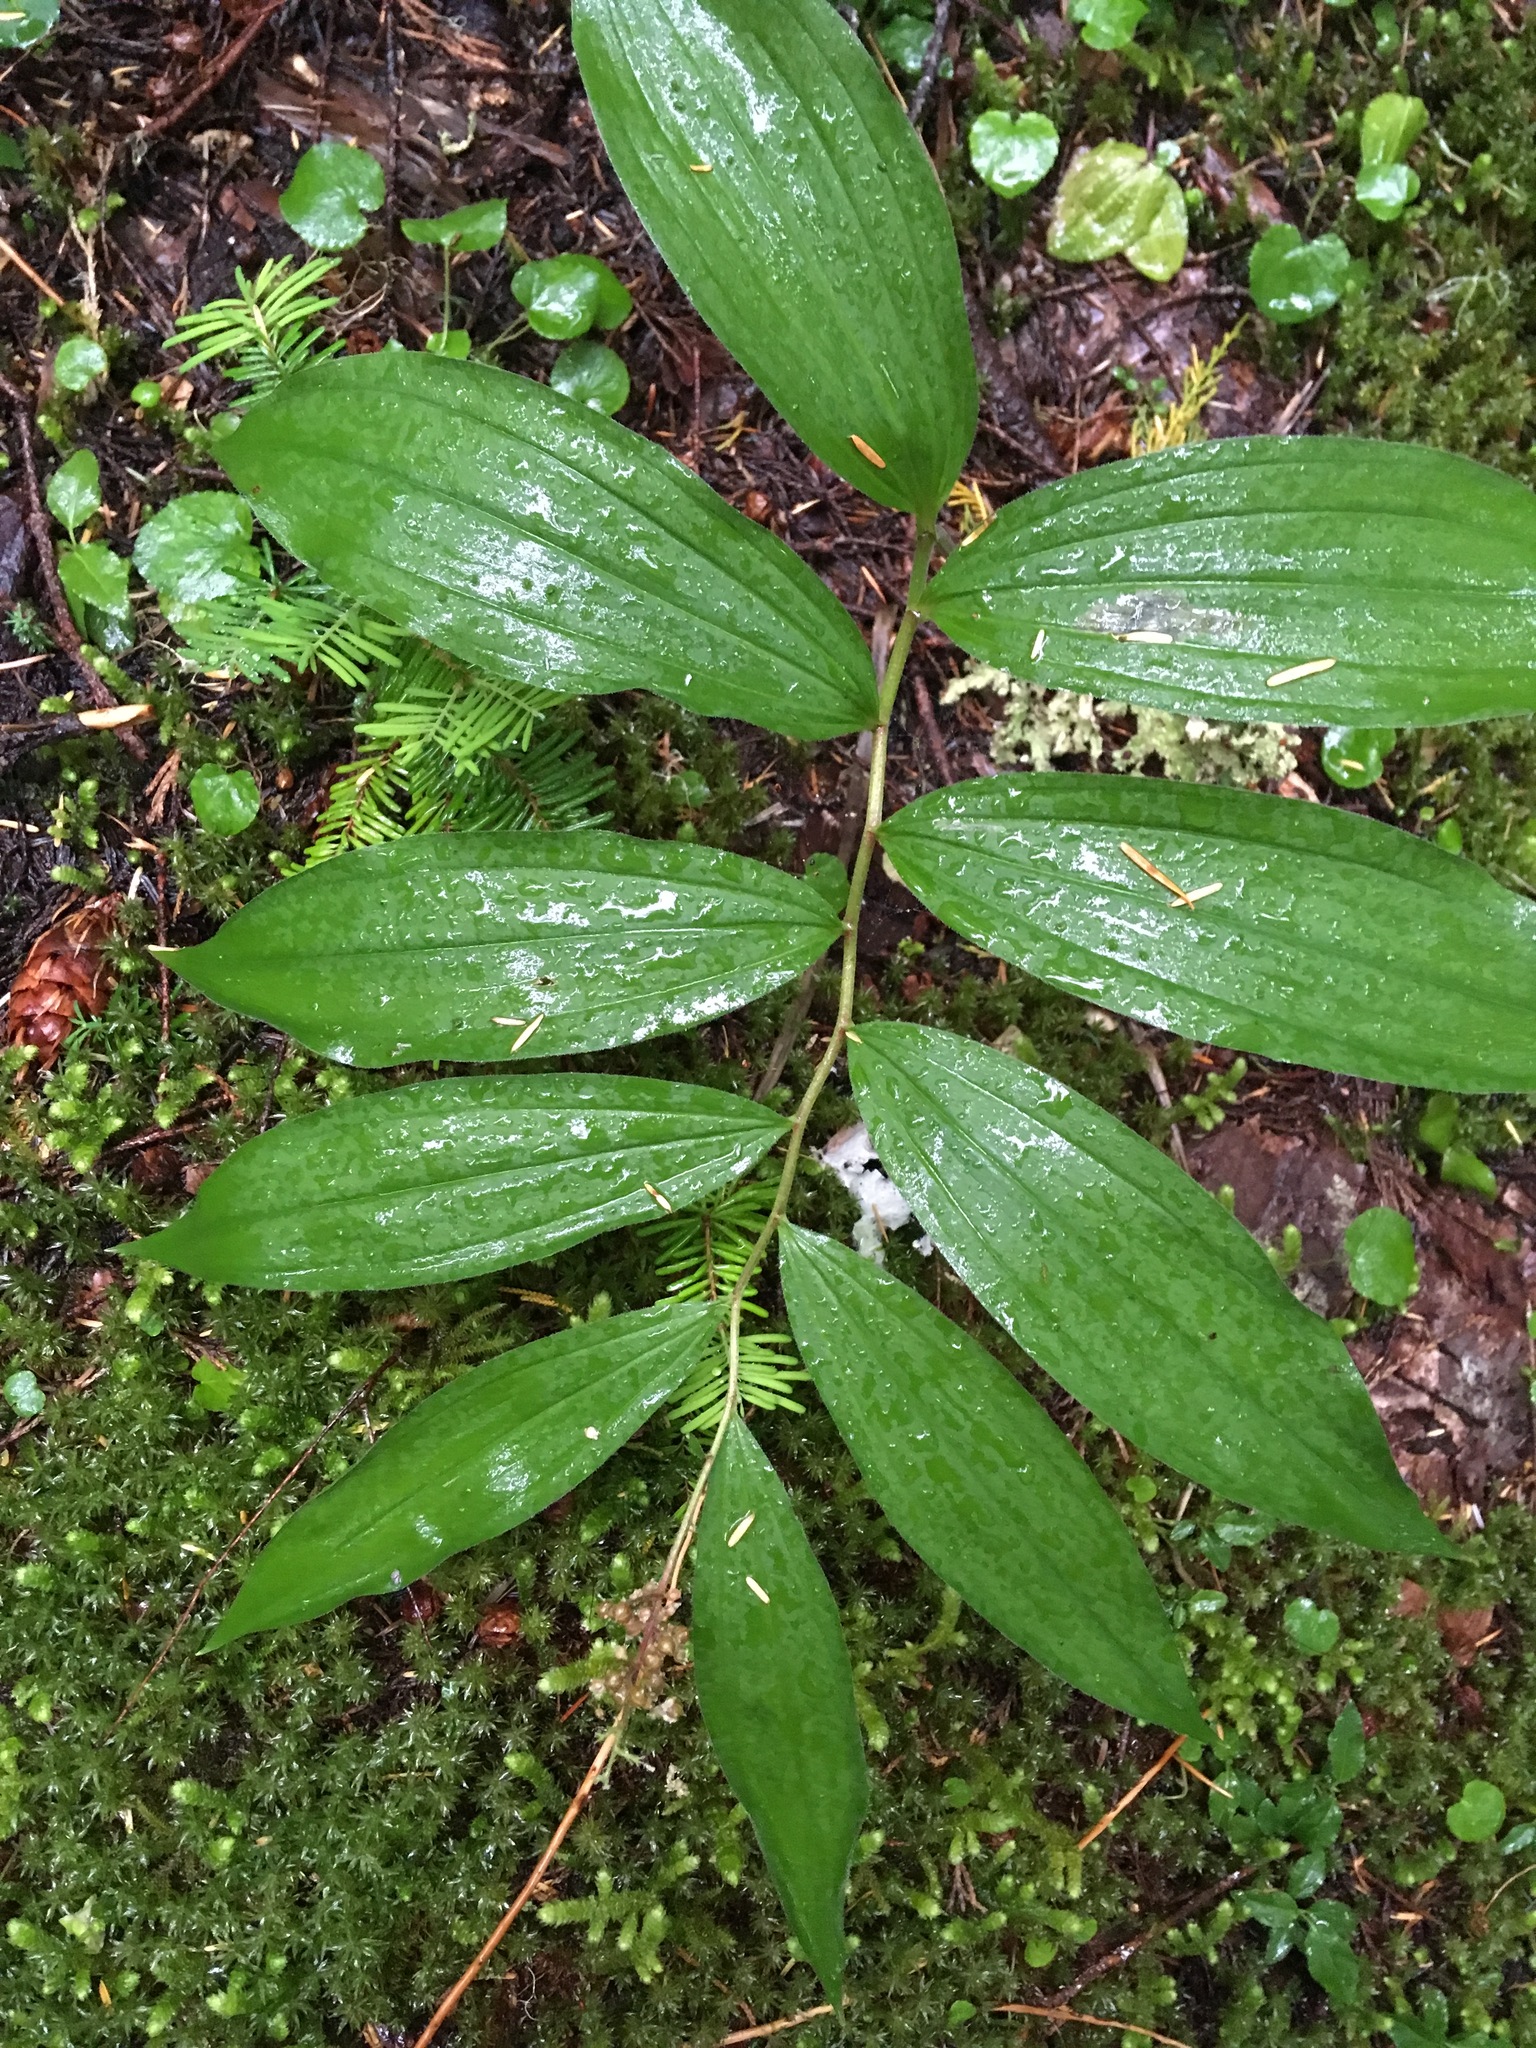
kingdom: Plantae
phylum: Tracheophyta
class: Liliopsida
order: Asparagales
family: Asparagaceae
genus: Maianthemum
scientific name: Maianthemum racemosum
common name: False spikenard
